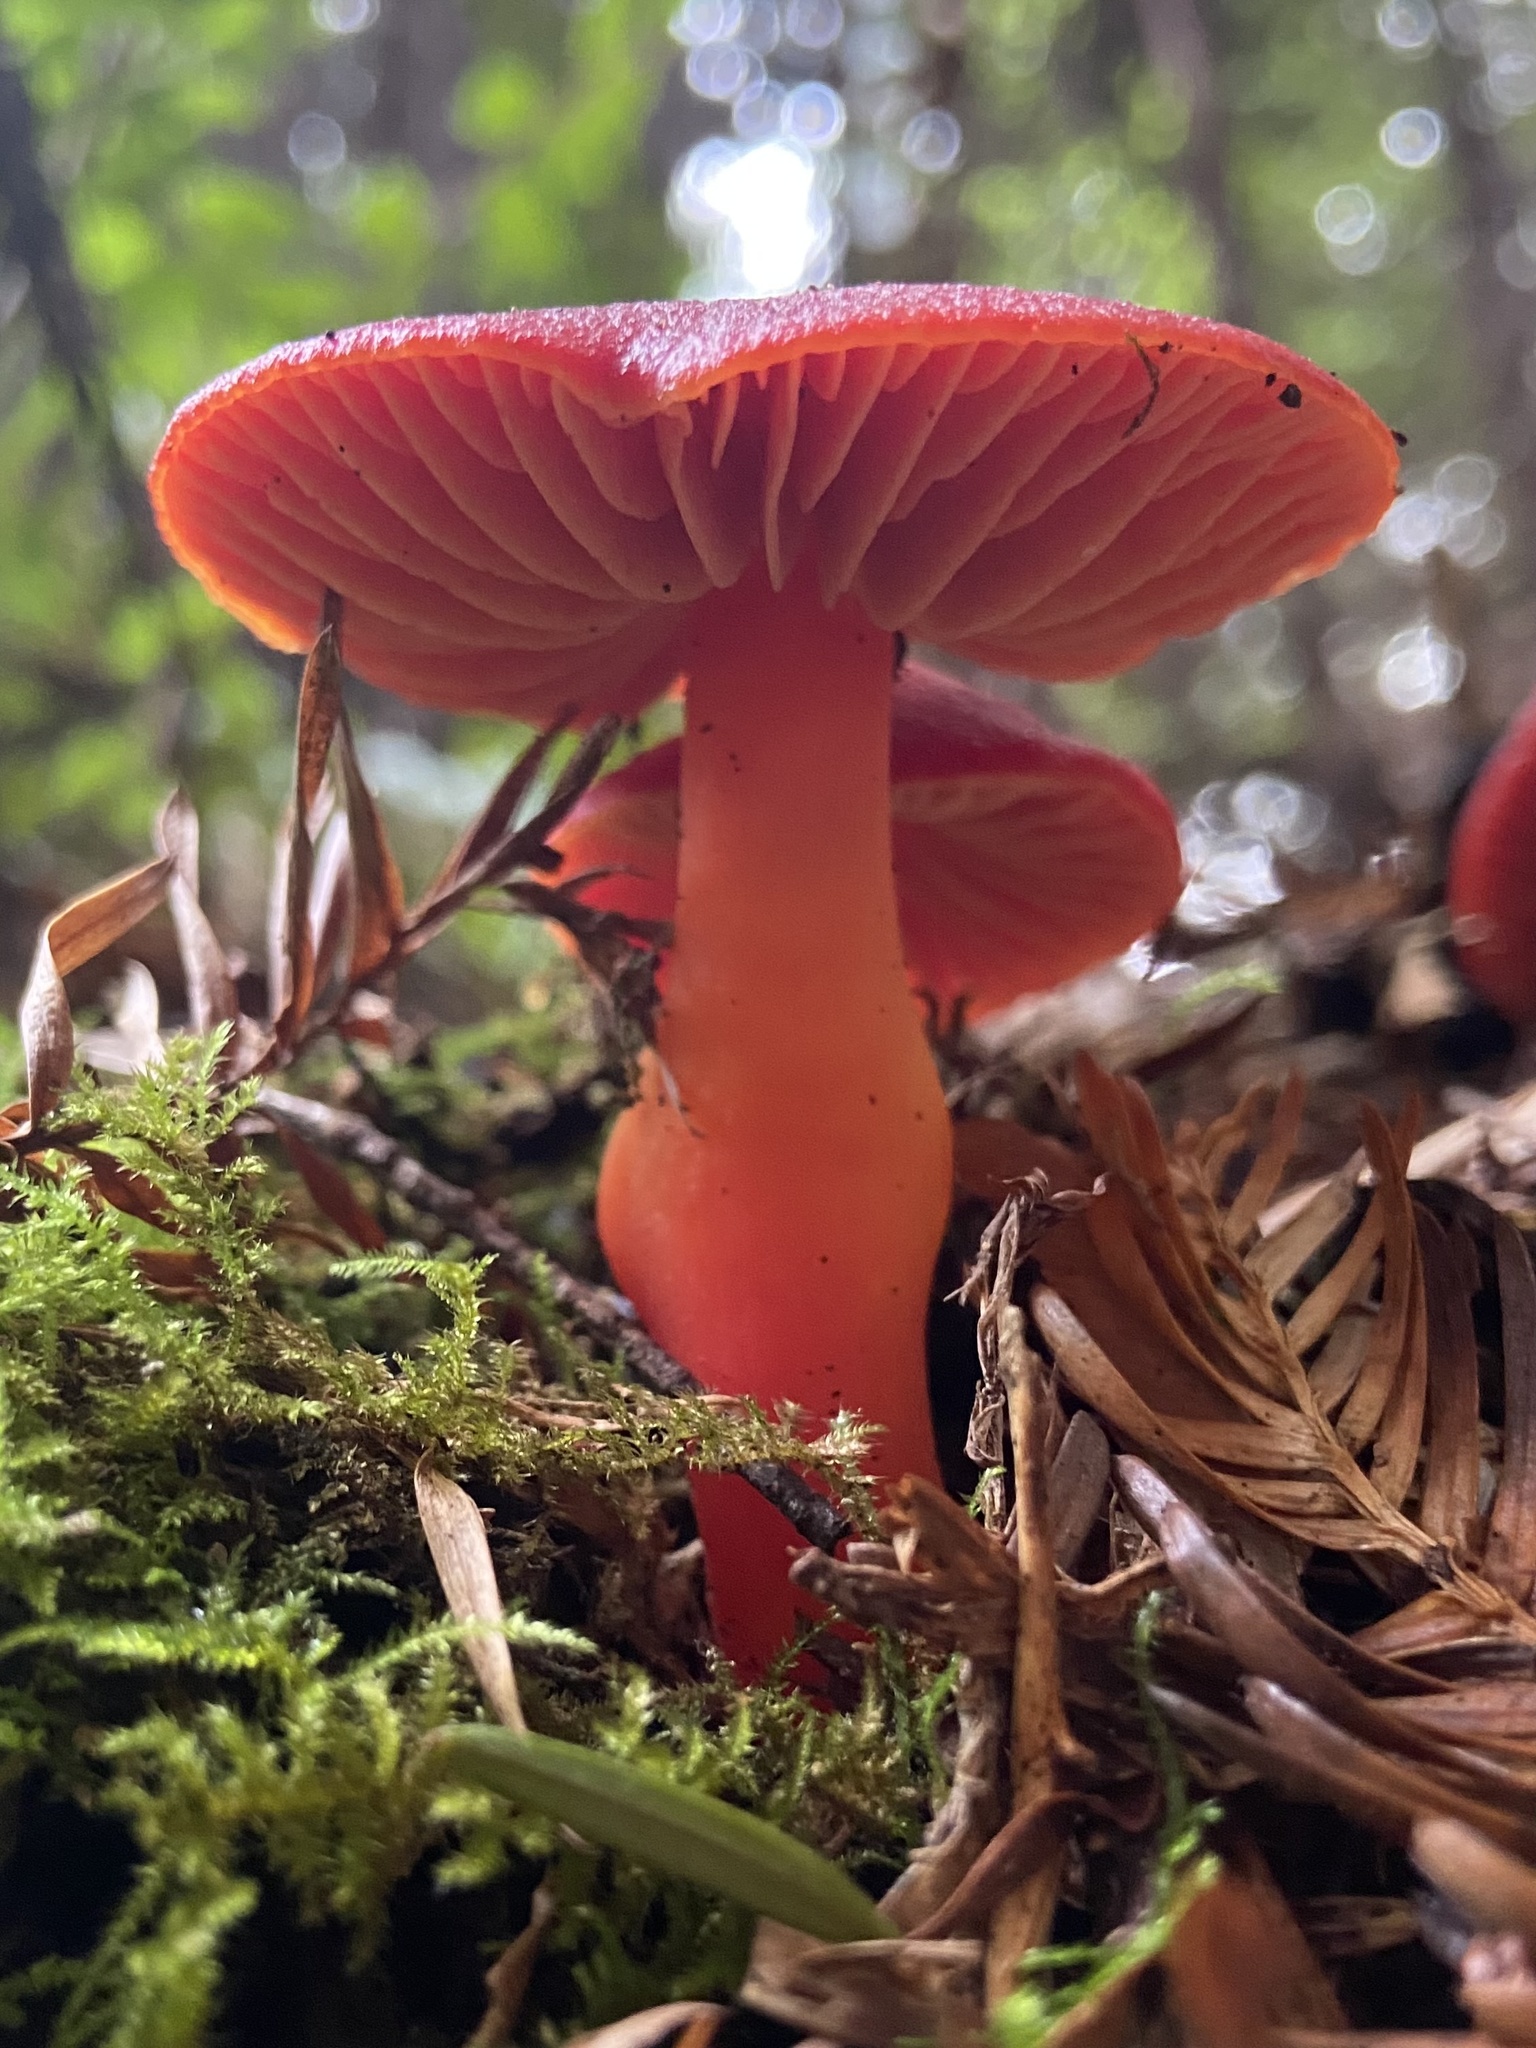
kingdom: Fungi
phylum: Basidiomycota
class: Agaricomycetes
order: Agaricales
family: Hygrophoraceae
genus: Hygrocybe
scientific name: Hygrocybe coccinea
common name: Scarlet hood
